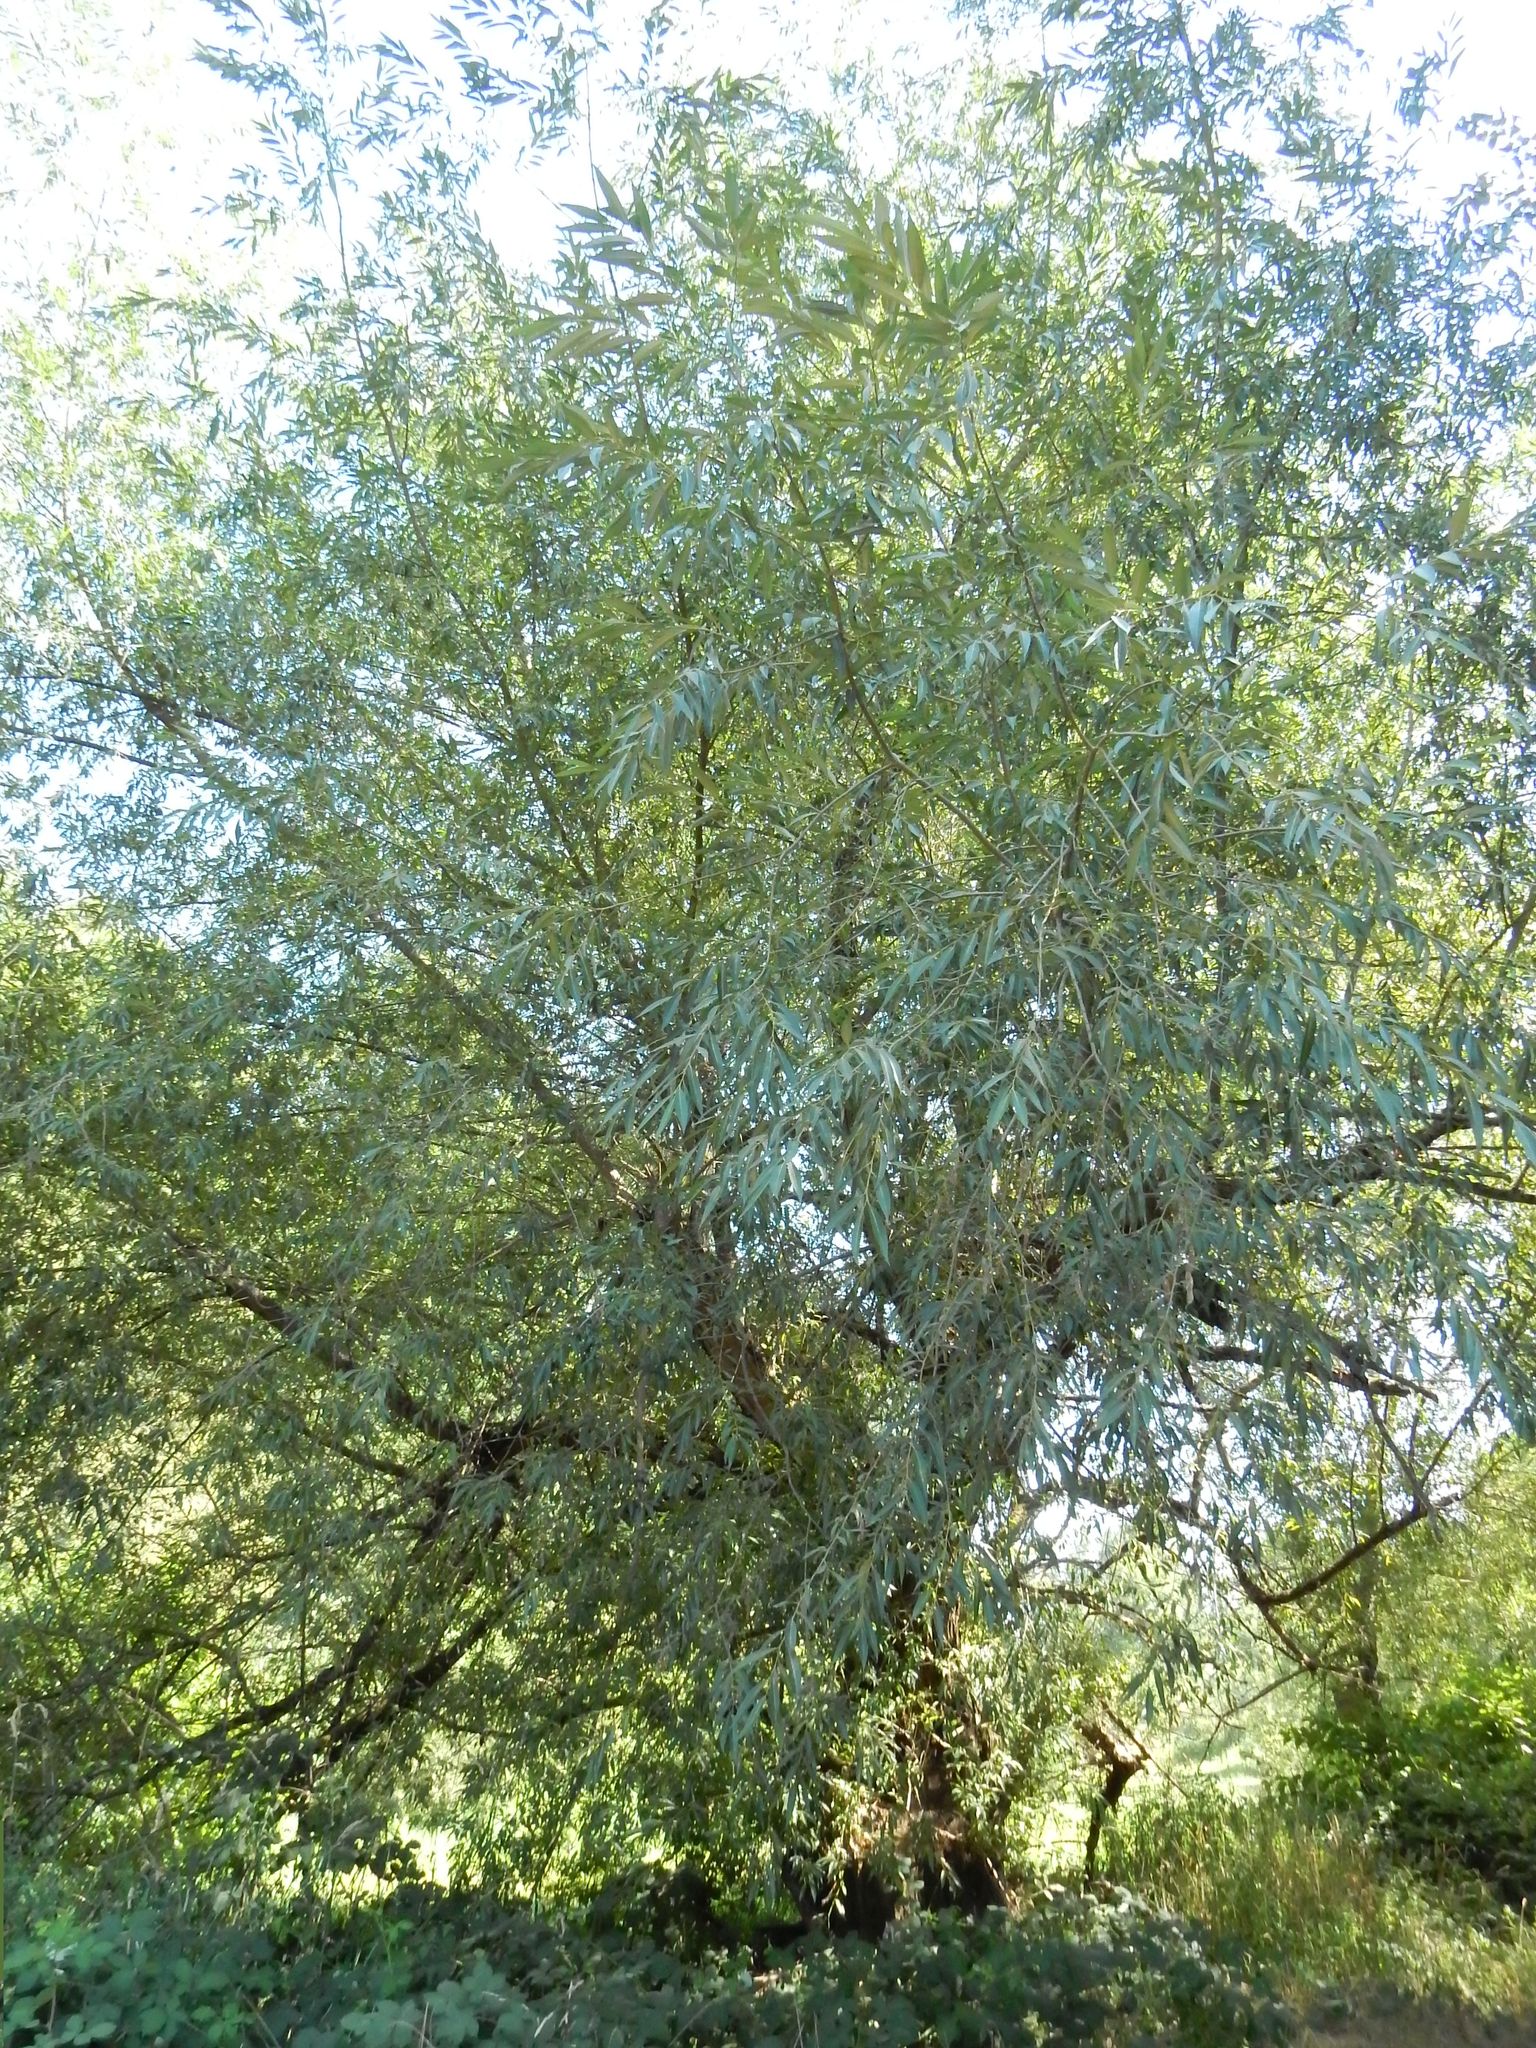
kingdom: Plantae
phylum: Tracheophyta
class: Magnoliopsida
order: Malpighiales
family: Salicaceae
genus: Salix
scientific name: Salix lucida
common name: Shining willow
